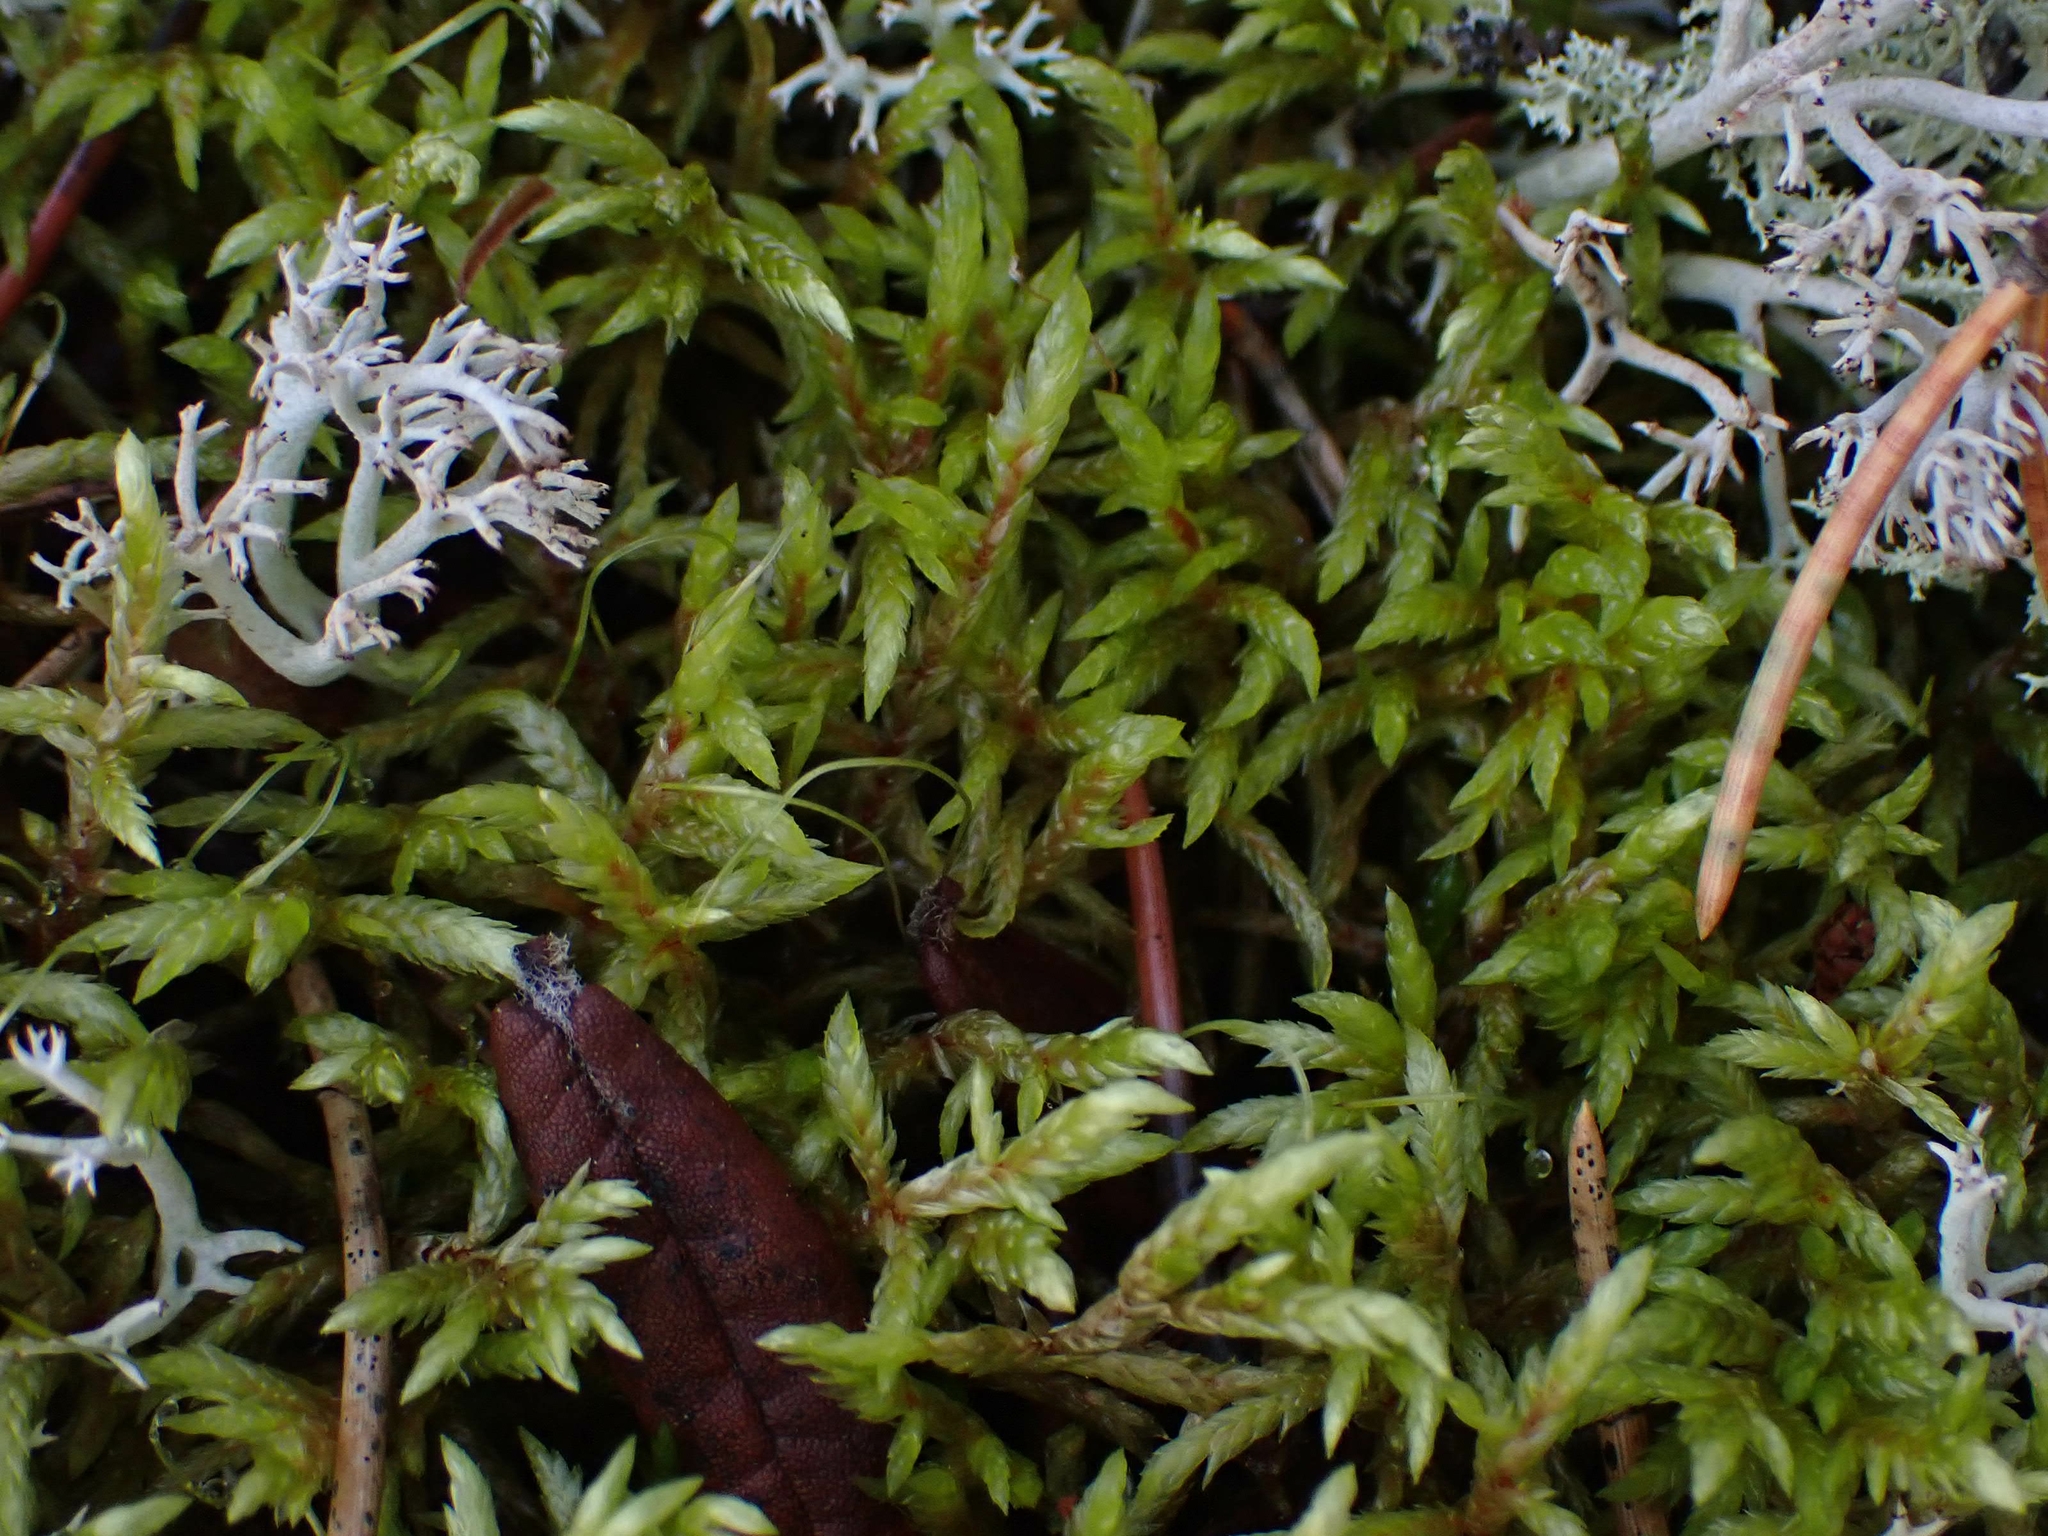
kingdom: Plantae
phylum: Bryophyta
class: Bryopsida
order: Hypnales
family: Hylocomiaceae
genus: Pleurozium
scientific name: Pleurozium schreberi
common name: Red-stemmed feather moss
